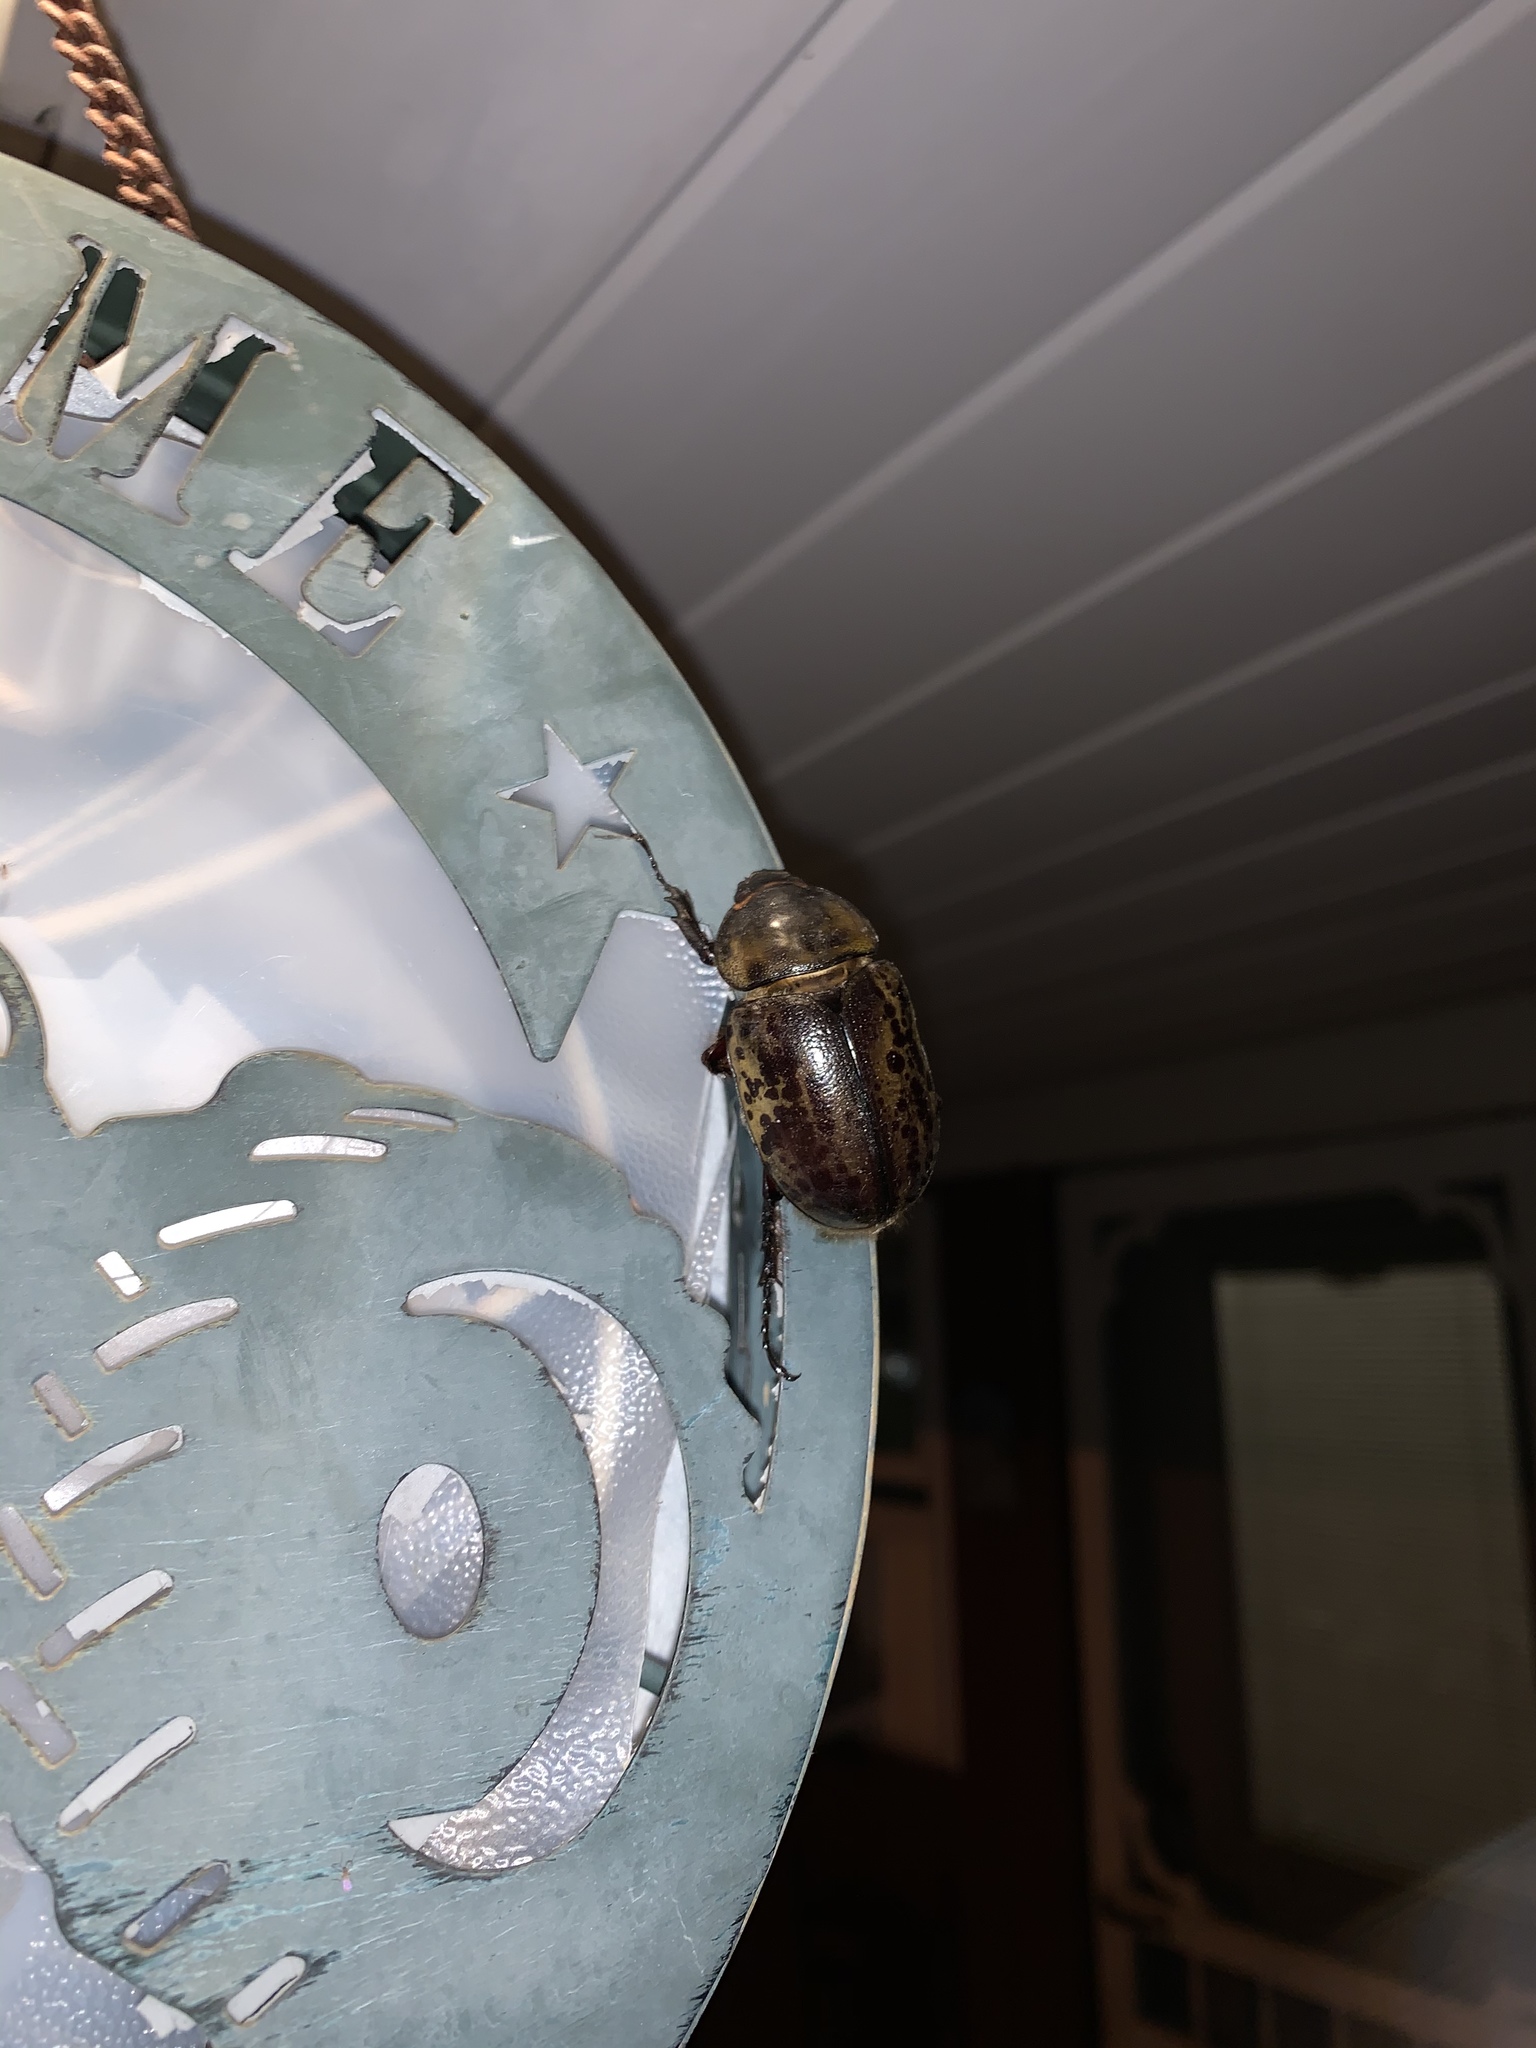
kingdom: Animalia
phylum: Arthropoda
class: Insecta
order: Coleoptera
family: Scarabaeidae
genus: Dynastes
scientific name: Dynastes tityus
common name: Eastern hercules beetle
